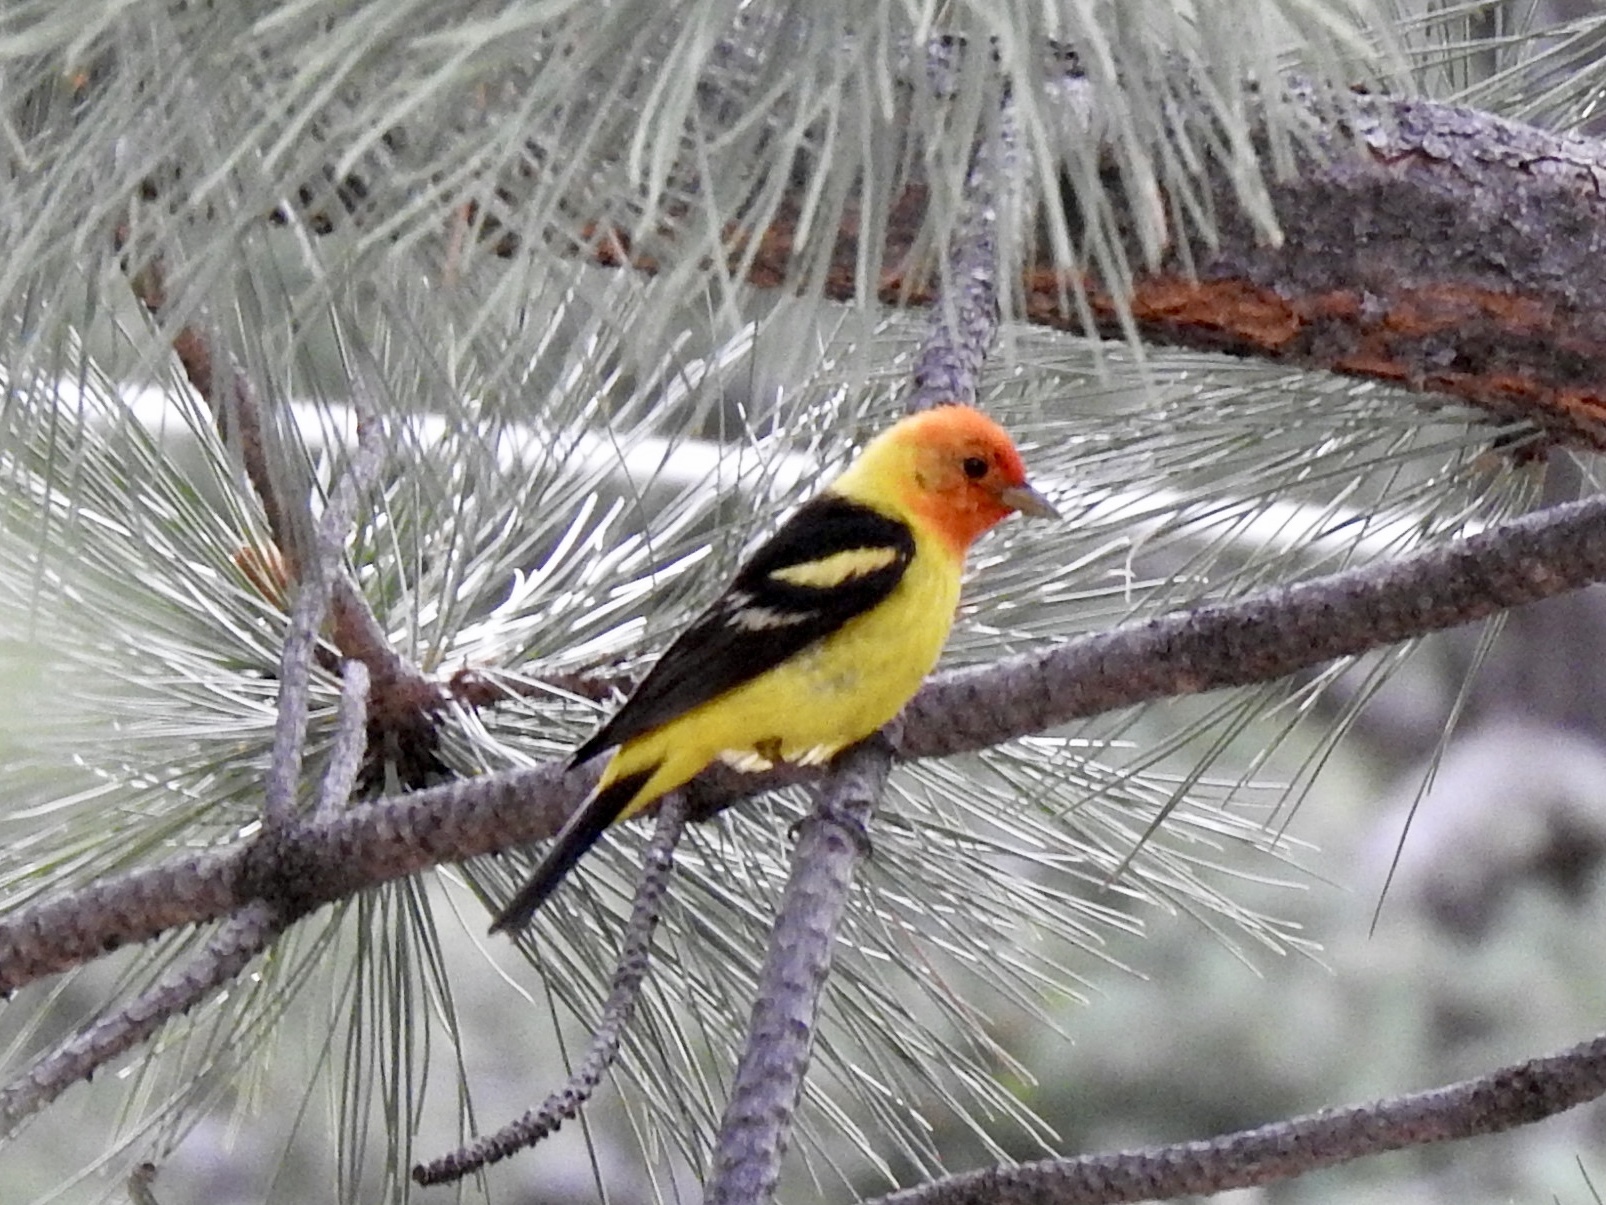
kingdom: Animalia
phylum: Chordata
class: Aves
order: Passeriformes
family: Cardinalidae
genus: Piranga
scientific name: Piranga ludoviciana
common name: Western tanager
